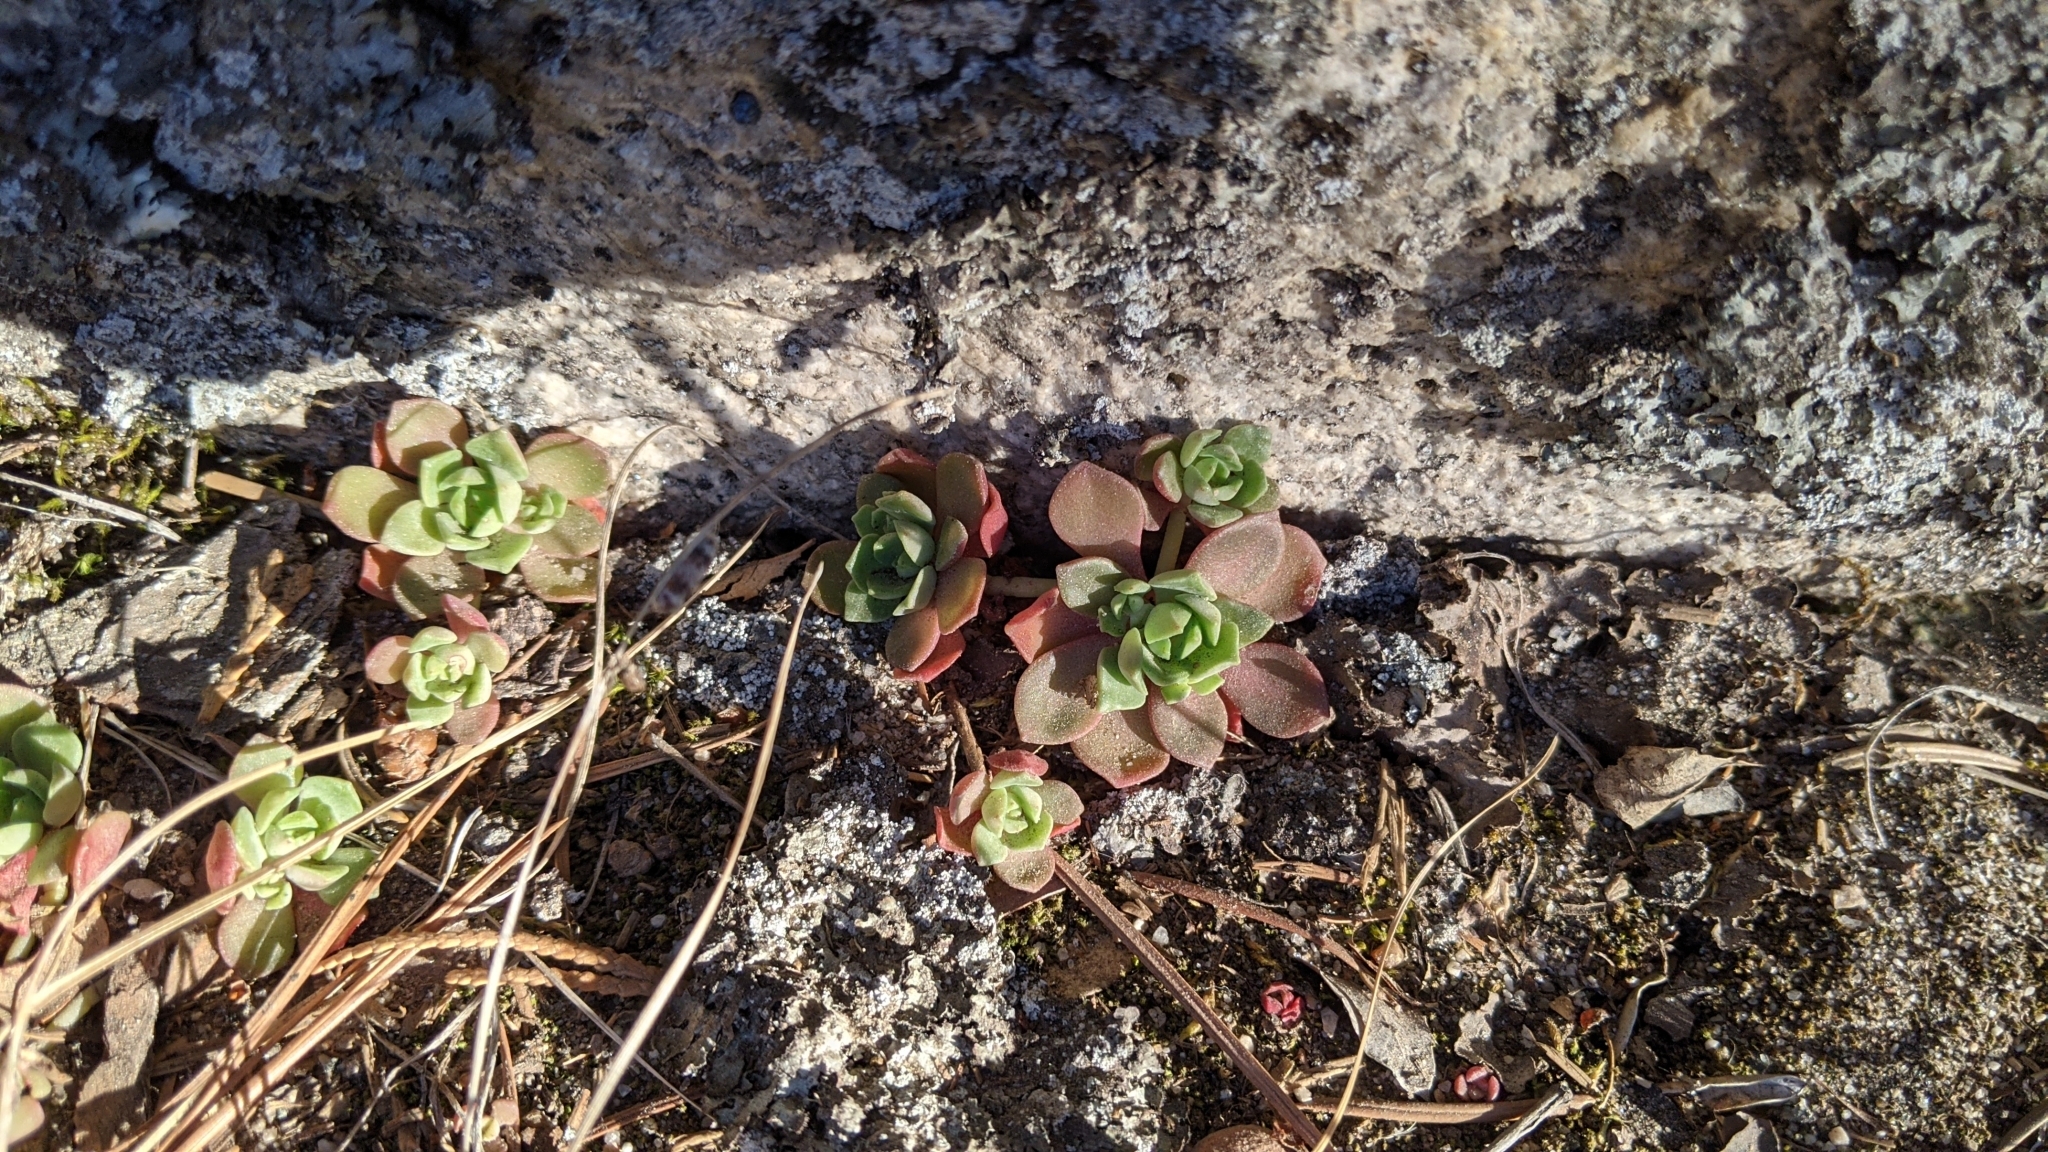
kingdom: Plantae
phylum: Tracheophyta
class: Magnoliopsida
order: Saxifragales
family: Crassulaceae
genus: Sedum
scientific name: Sedum spathulifolium
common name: Colorado stonecrop
